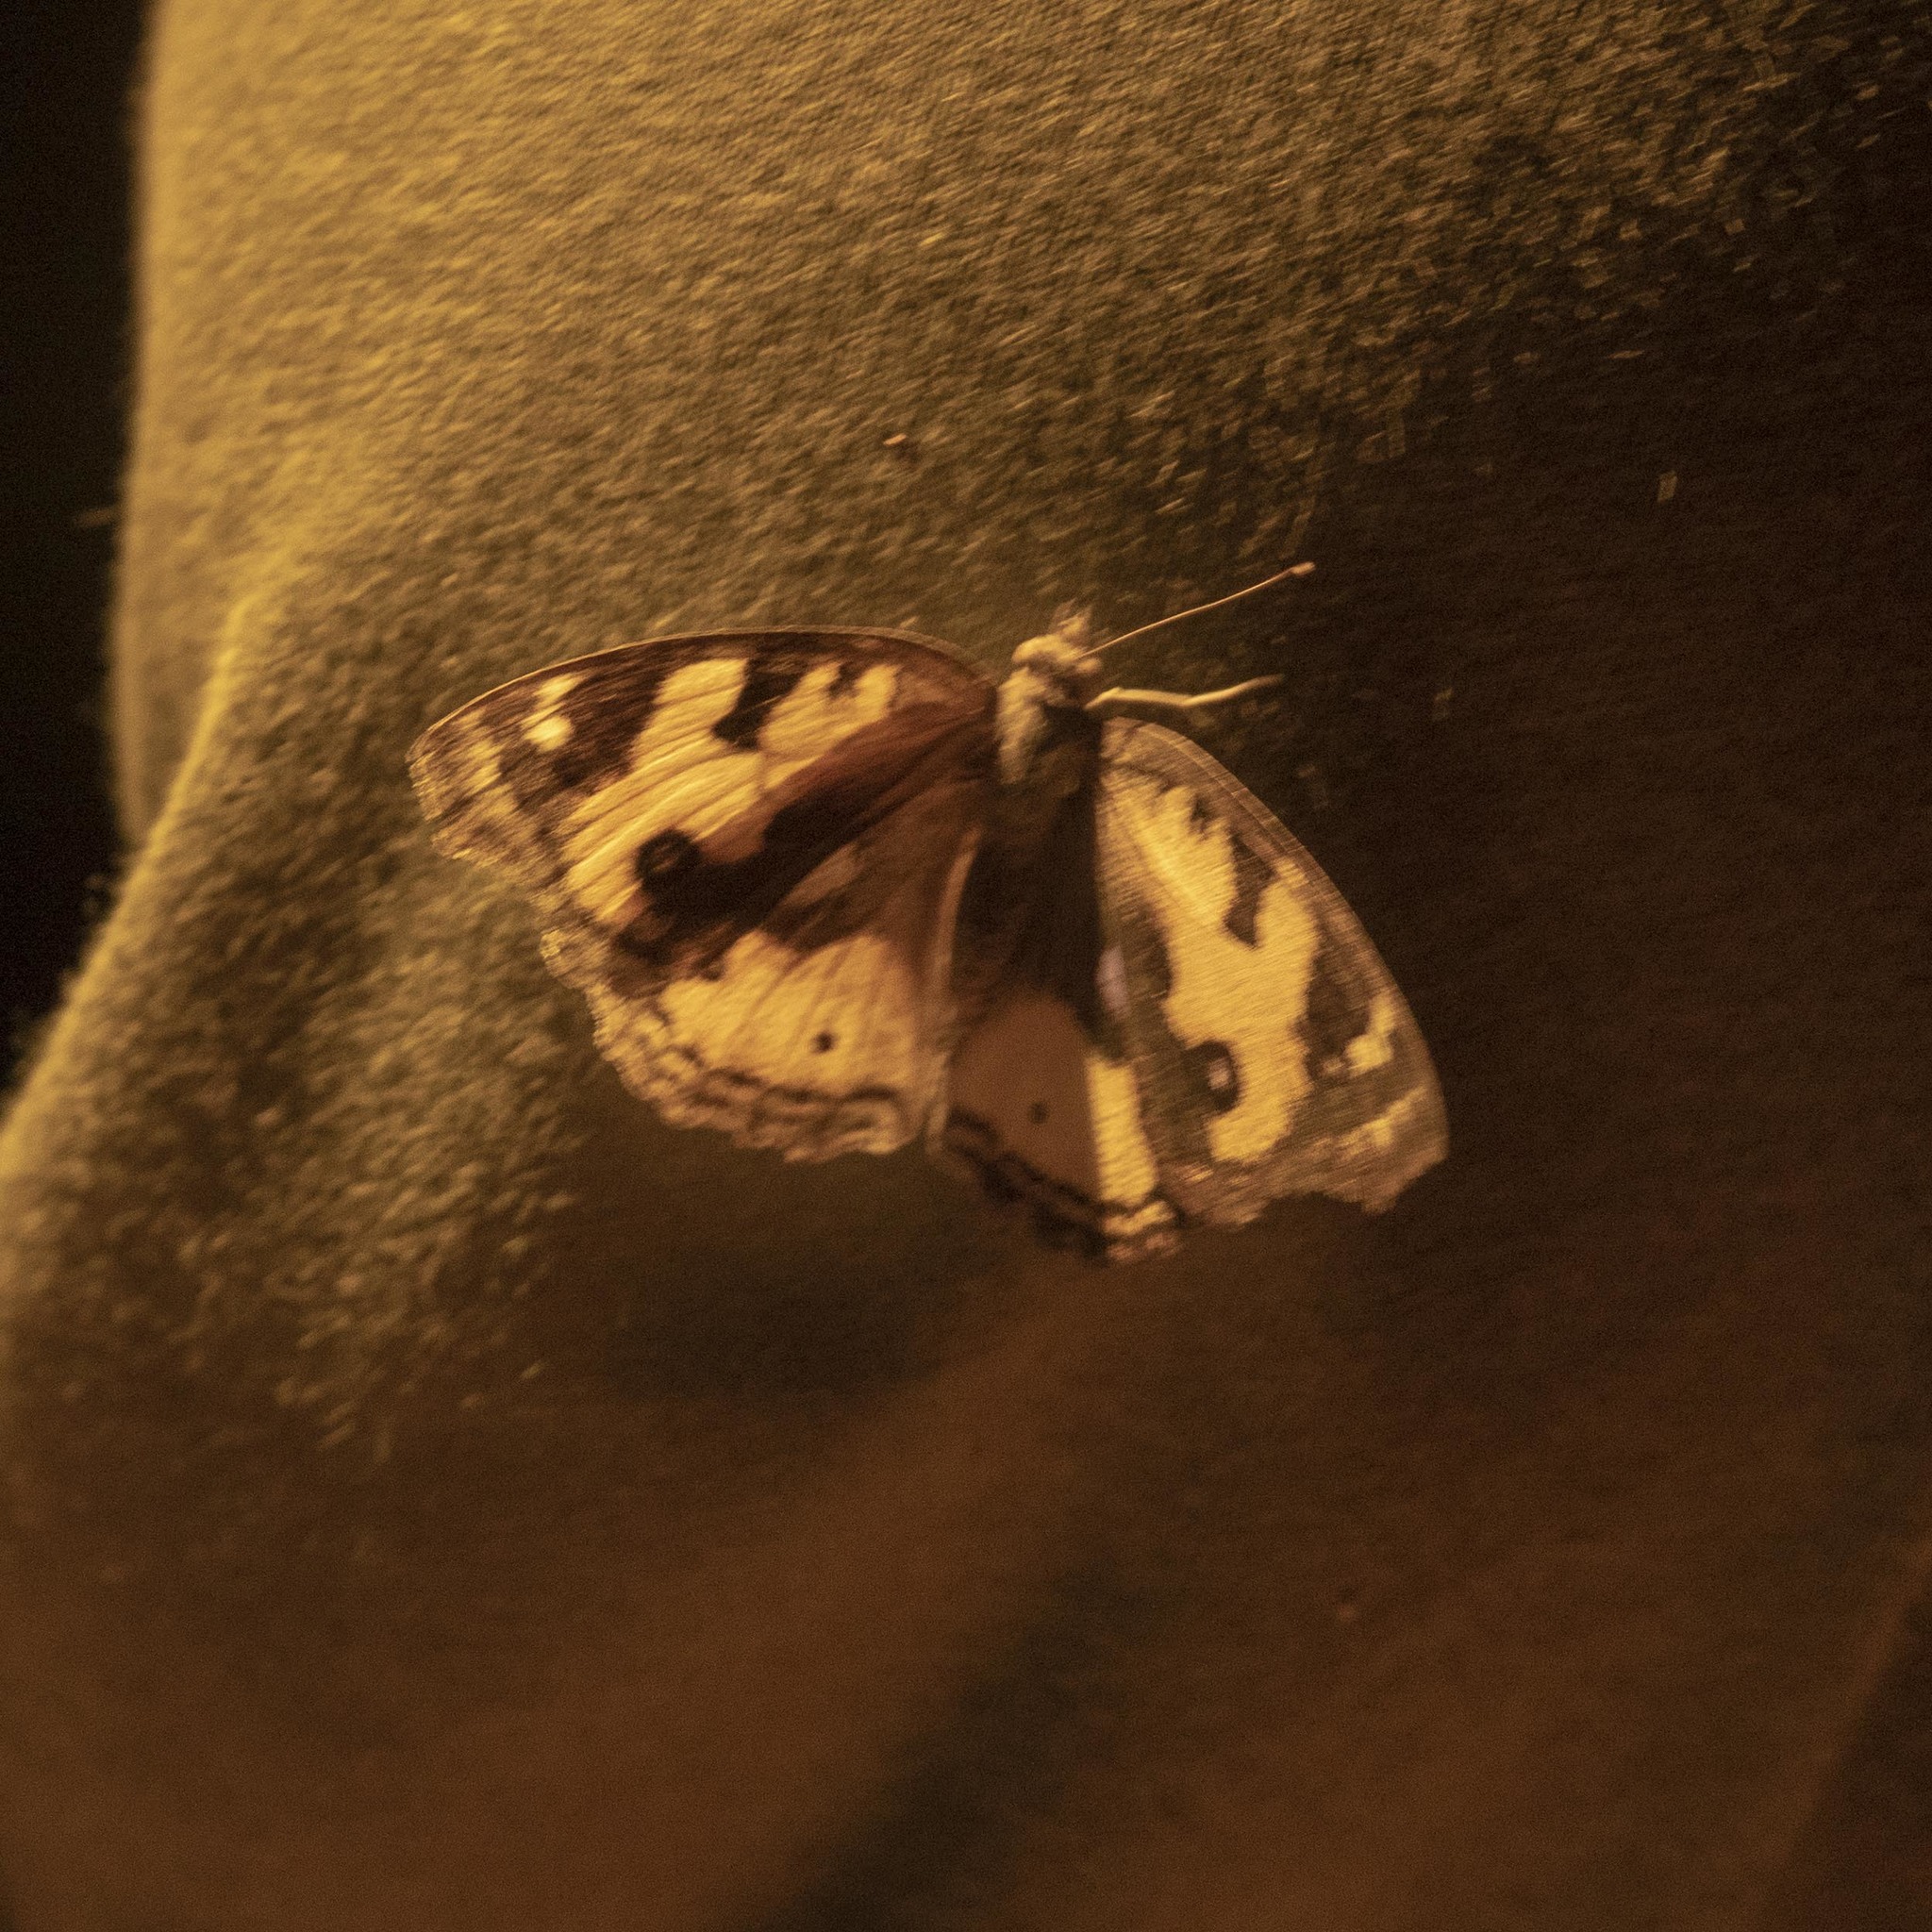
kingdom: Animalia
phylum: Arthropoda
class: Insecta
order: Lepidoptera
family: Nymphalidae
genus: Junonia
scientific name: Junonia hierta
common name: Yellow pansy
